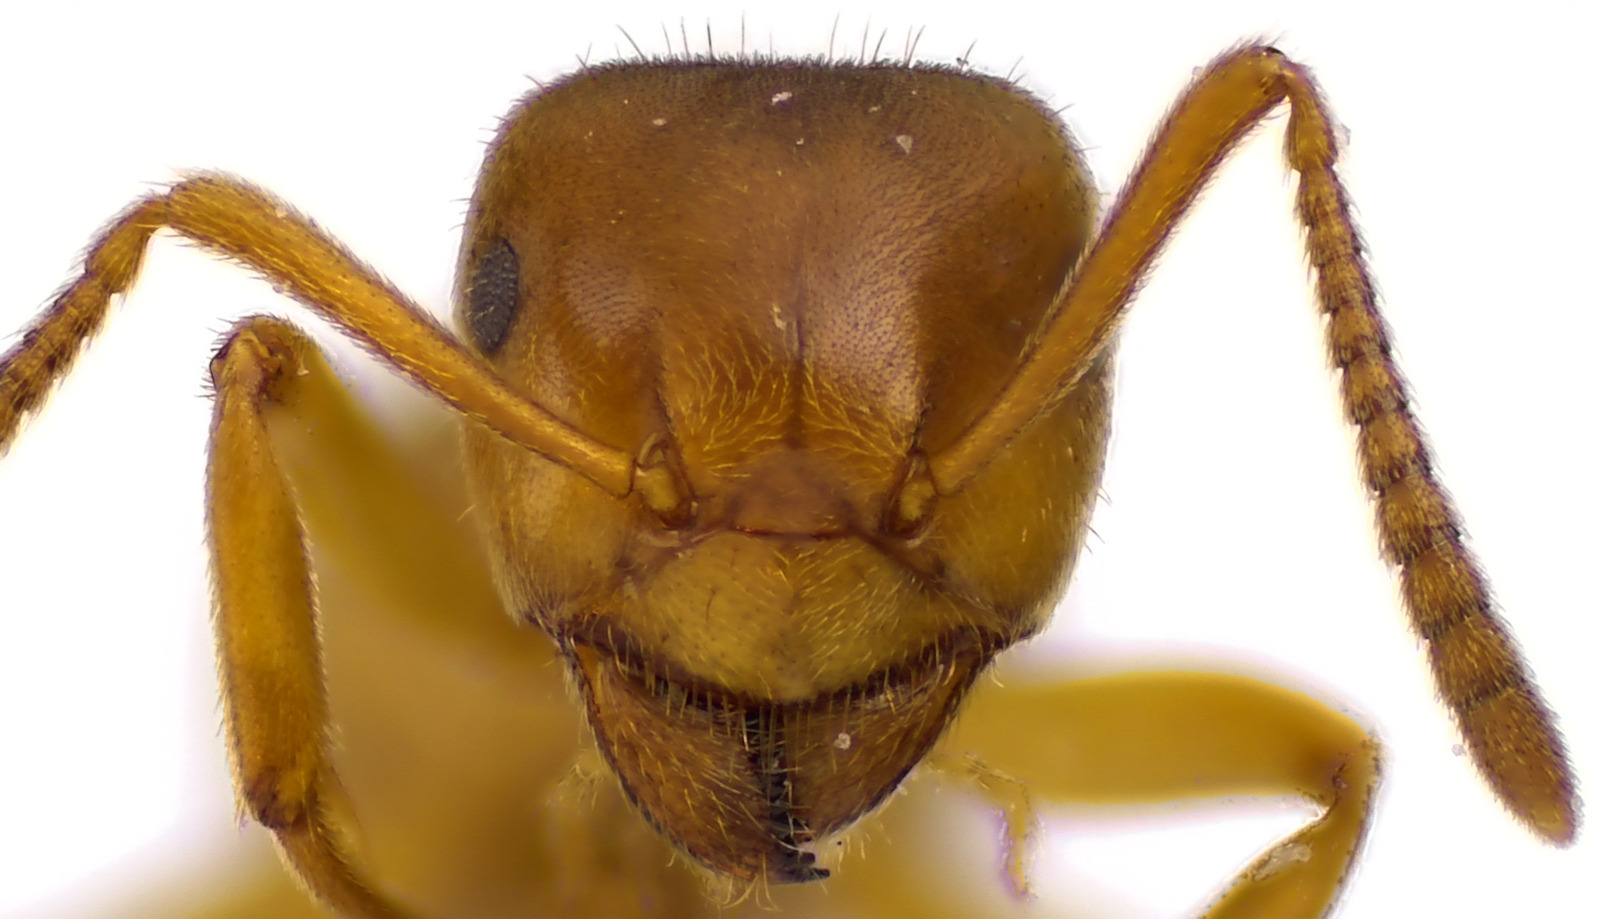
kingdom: Animalia
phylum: Arthropoda
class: Insecta
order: Hymenoptera
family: Formicidae
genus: Lasius
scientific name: Lasius aphidicola
